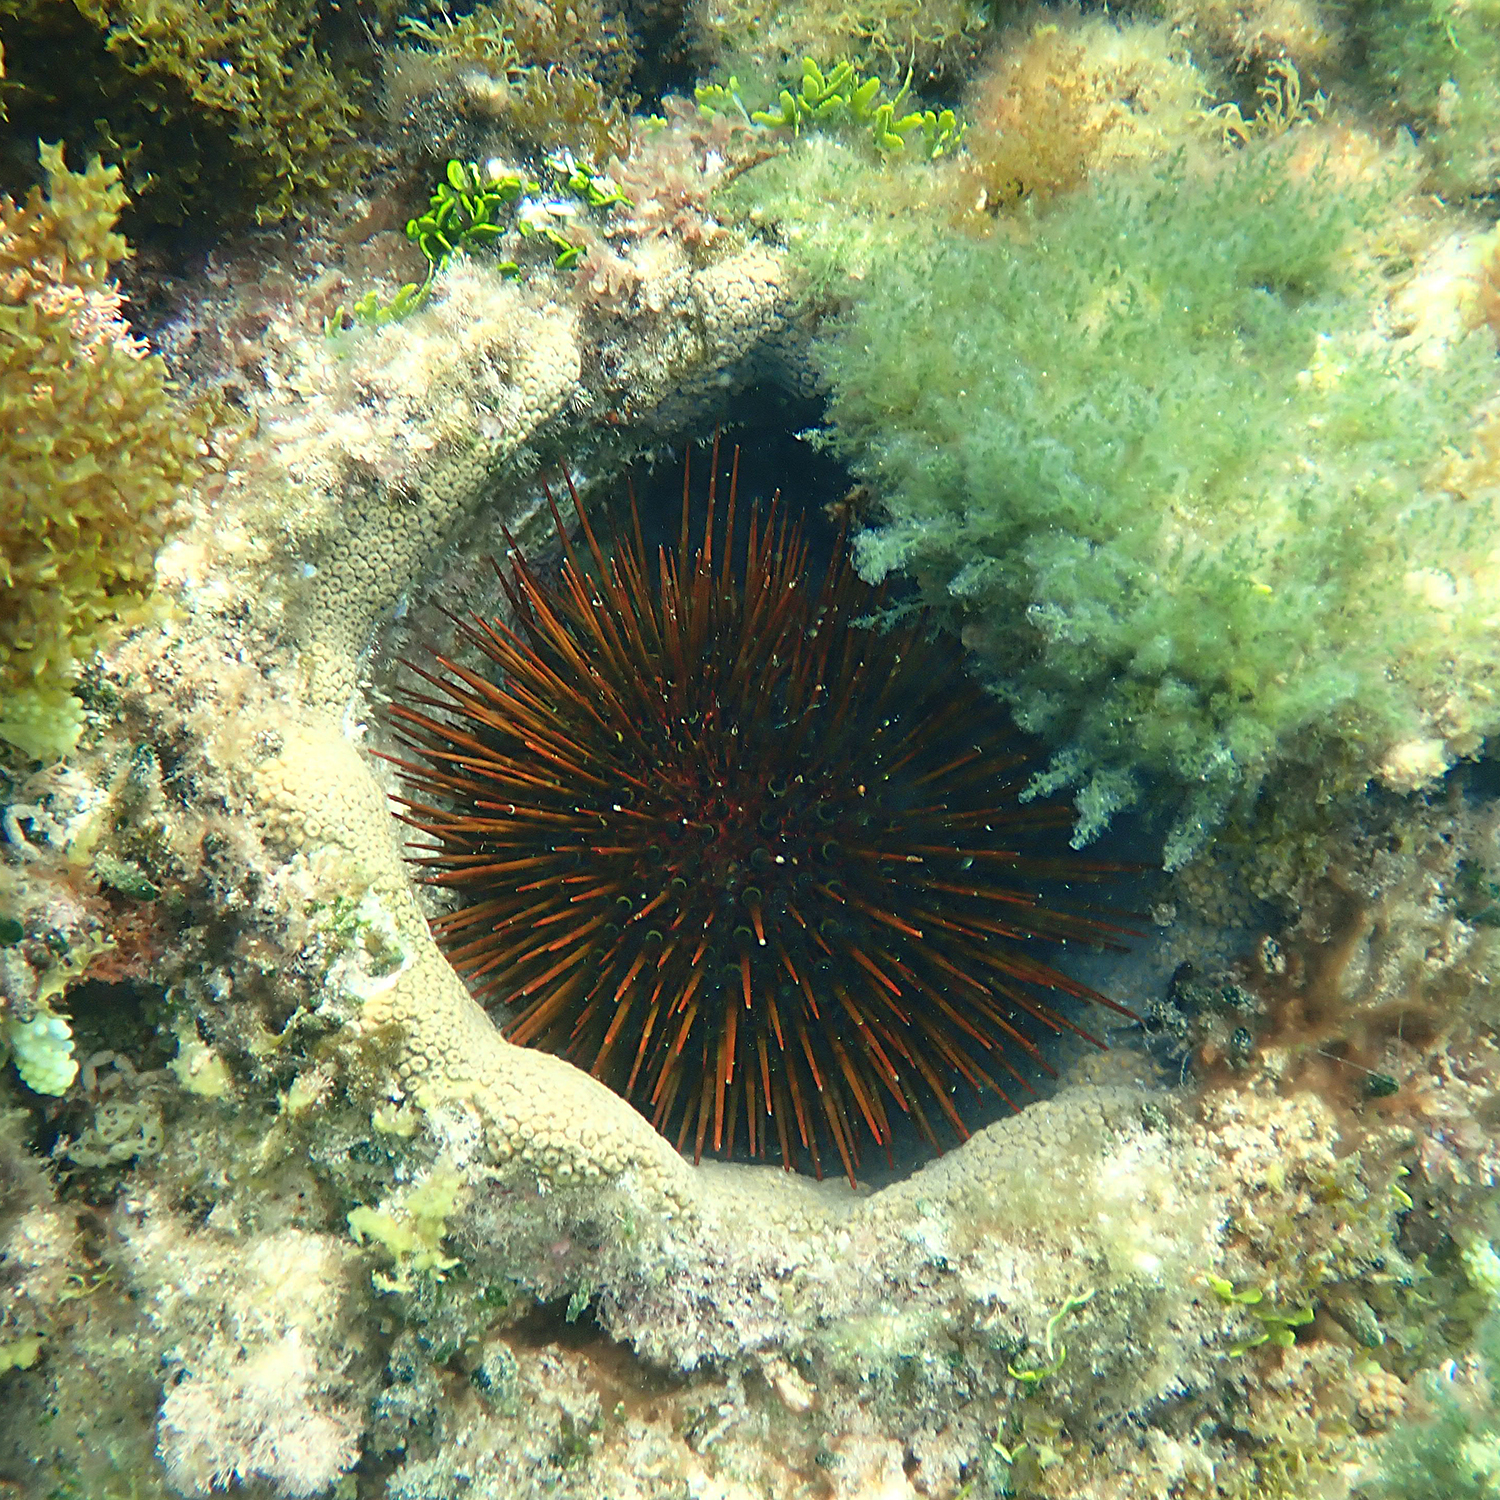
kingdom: Animalia
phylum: Echinodermata
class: Echinoidea
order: Camarodonta
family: Echinometridae
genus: Heliocidaris
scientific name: Heliocidaris tuberculata
